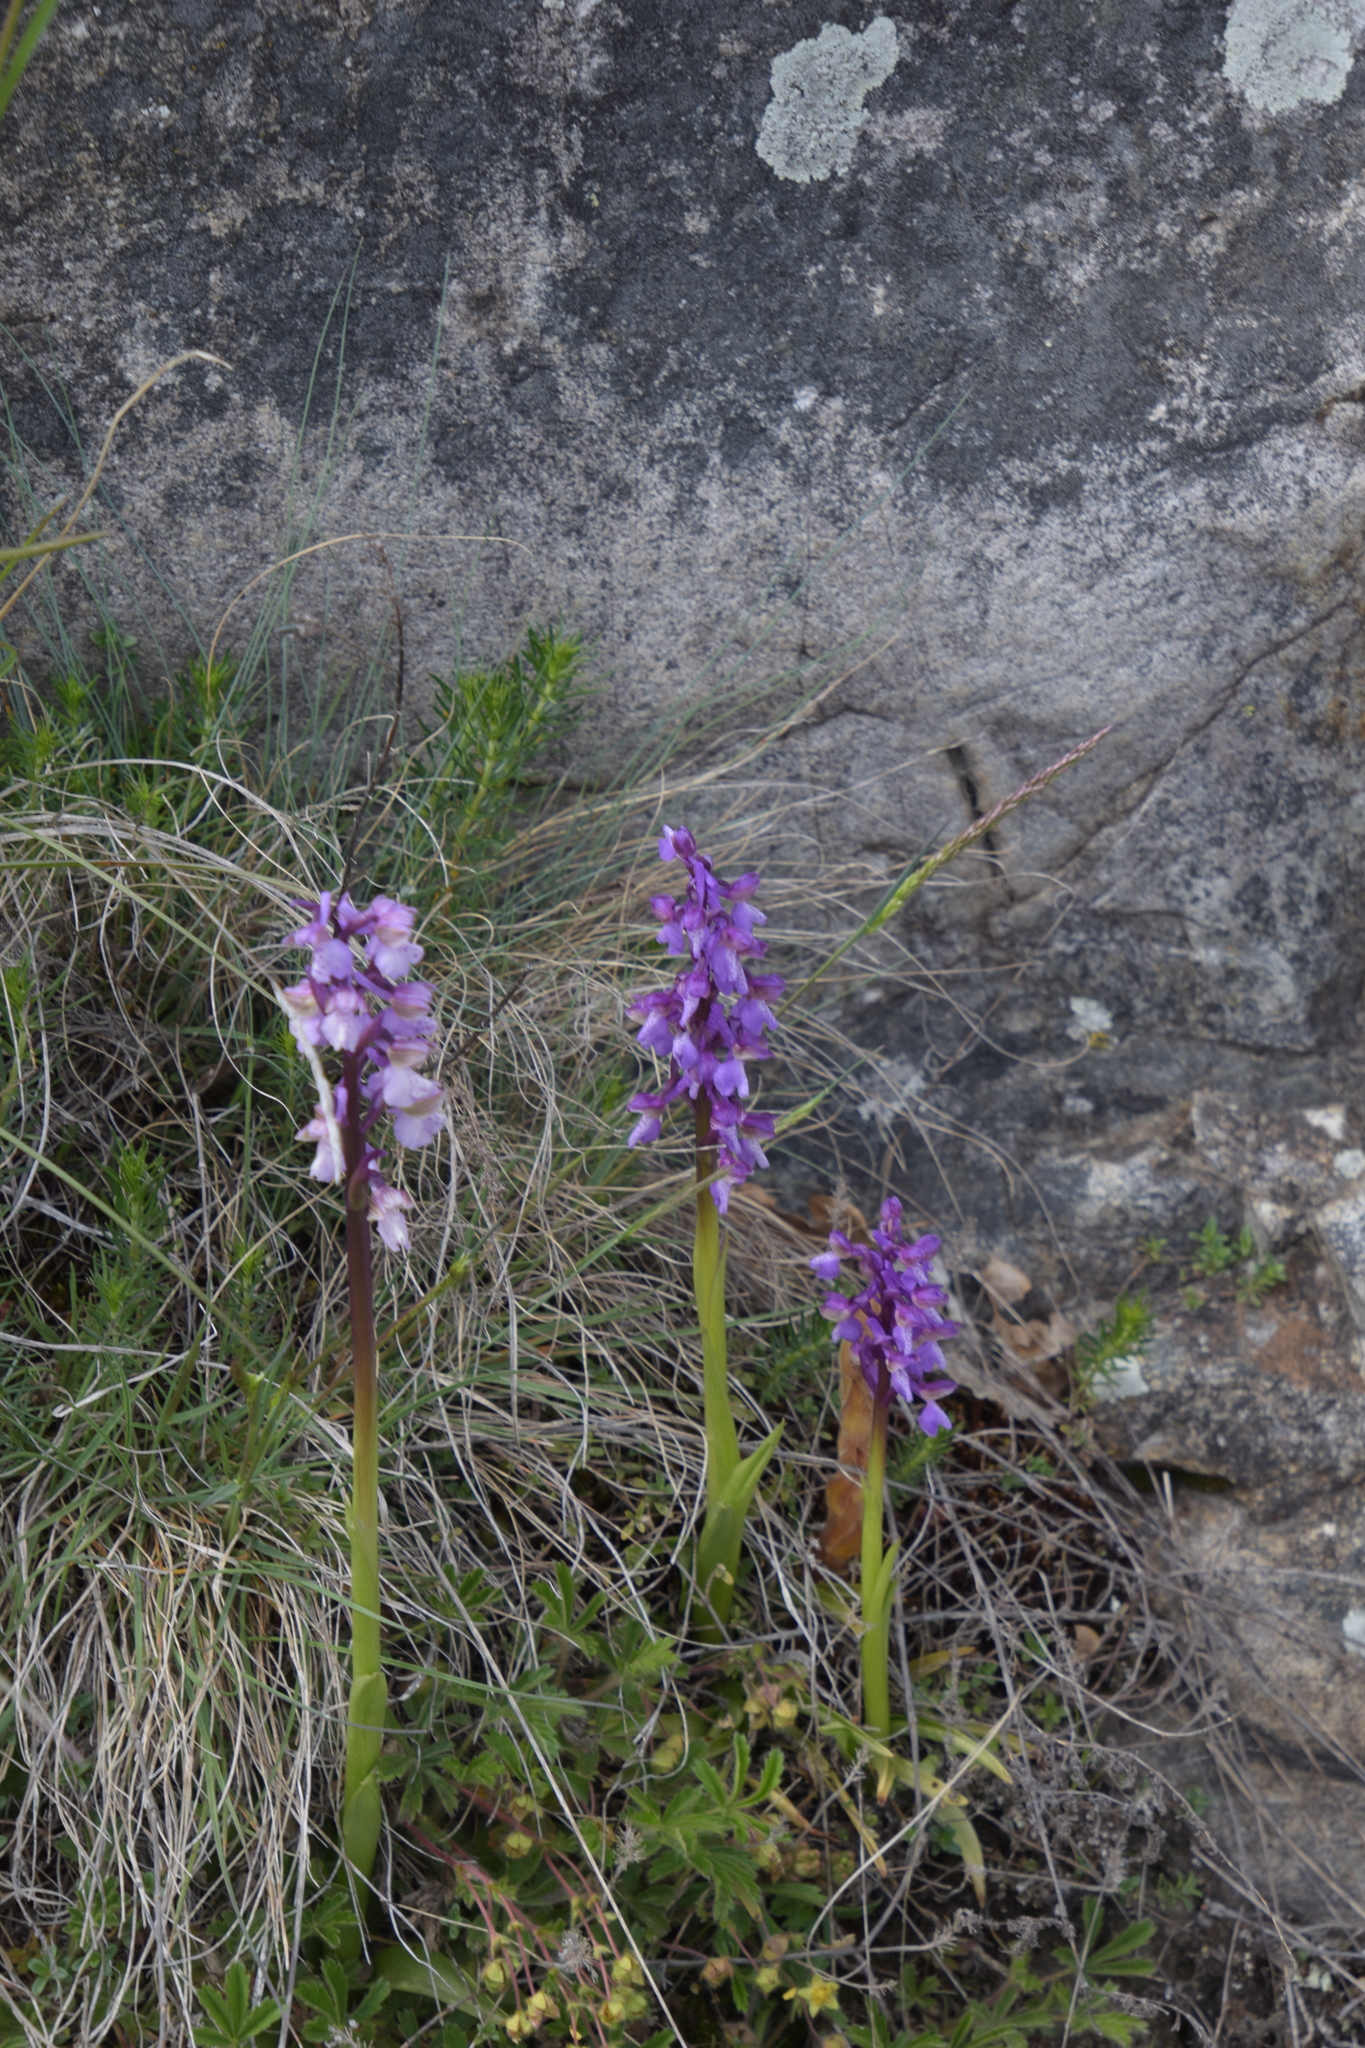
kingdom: Plantae
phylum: Tracheophyta
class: Liliopsida
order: Asparagales
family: Orchidaceae
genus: Anacamptis
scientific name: Anacamptis morio
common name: Green-winged orchid
